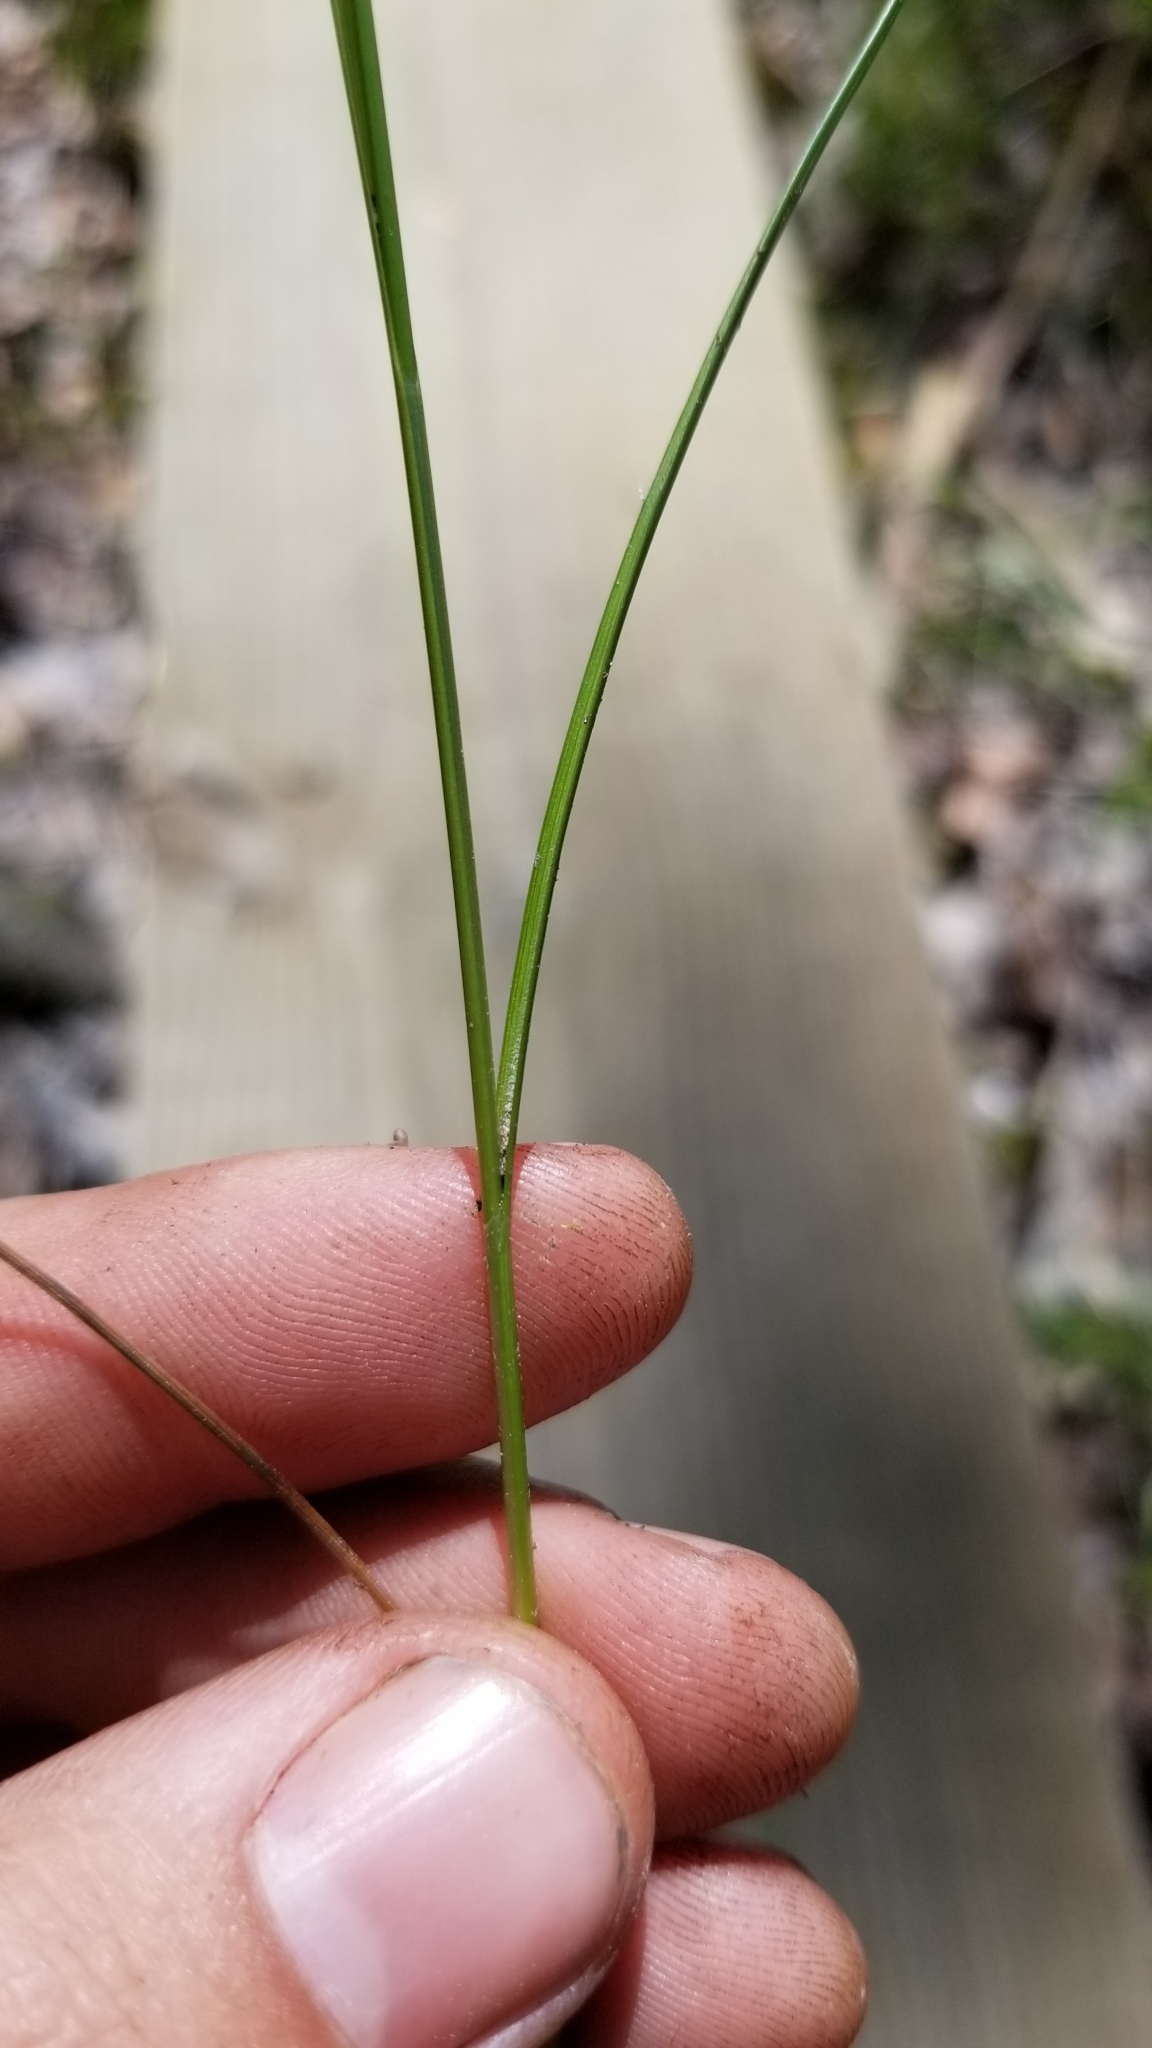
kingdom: Plantae
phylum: Tracheophyta
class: Liliopsida
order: Poales
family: Cyperaceae
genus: Carex
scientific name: Carex atlantica
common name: Atlantic sedge
